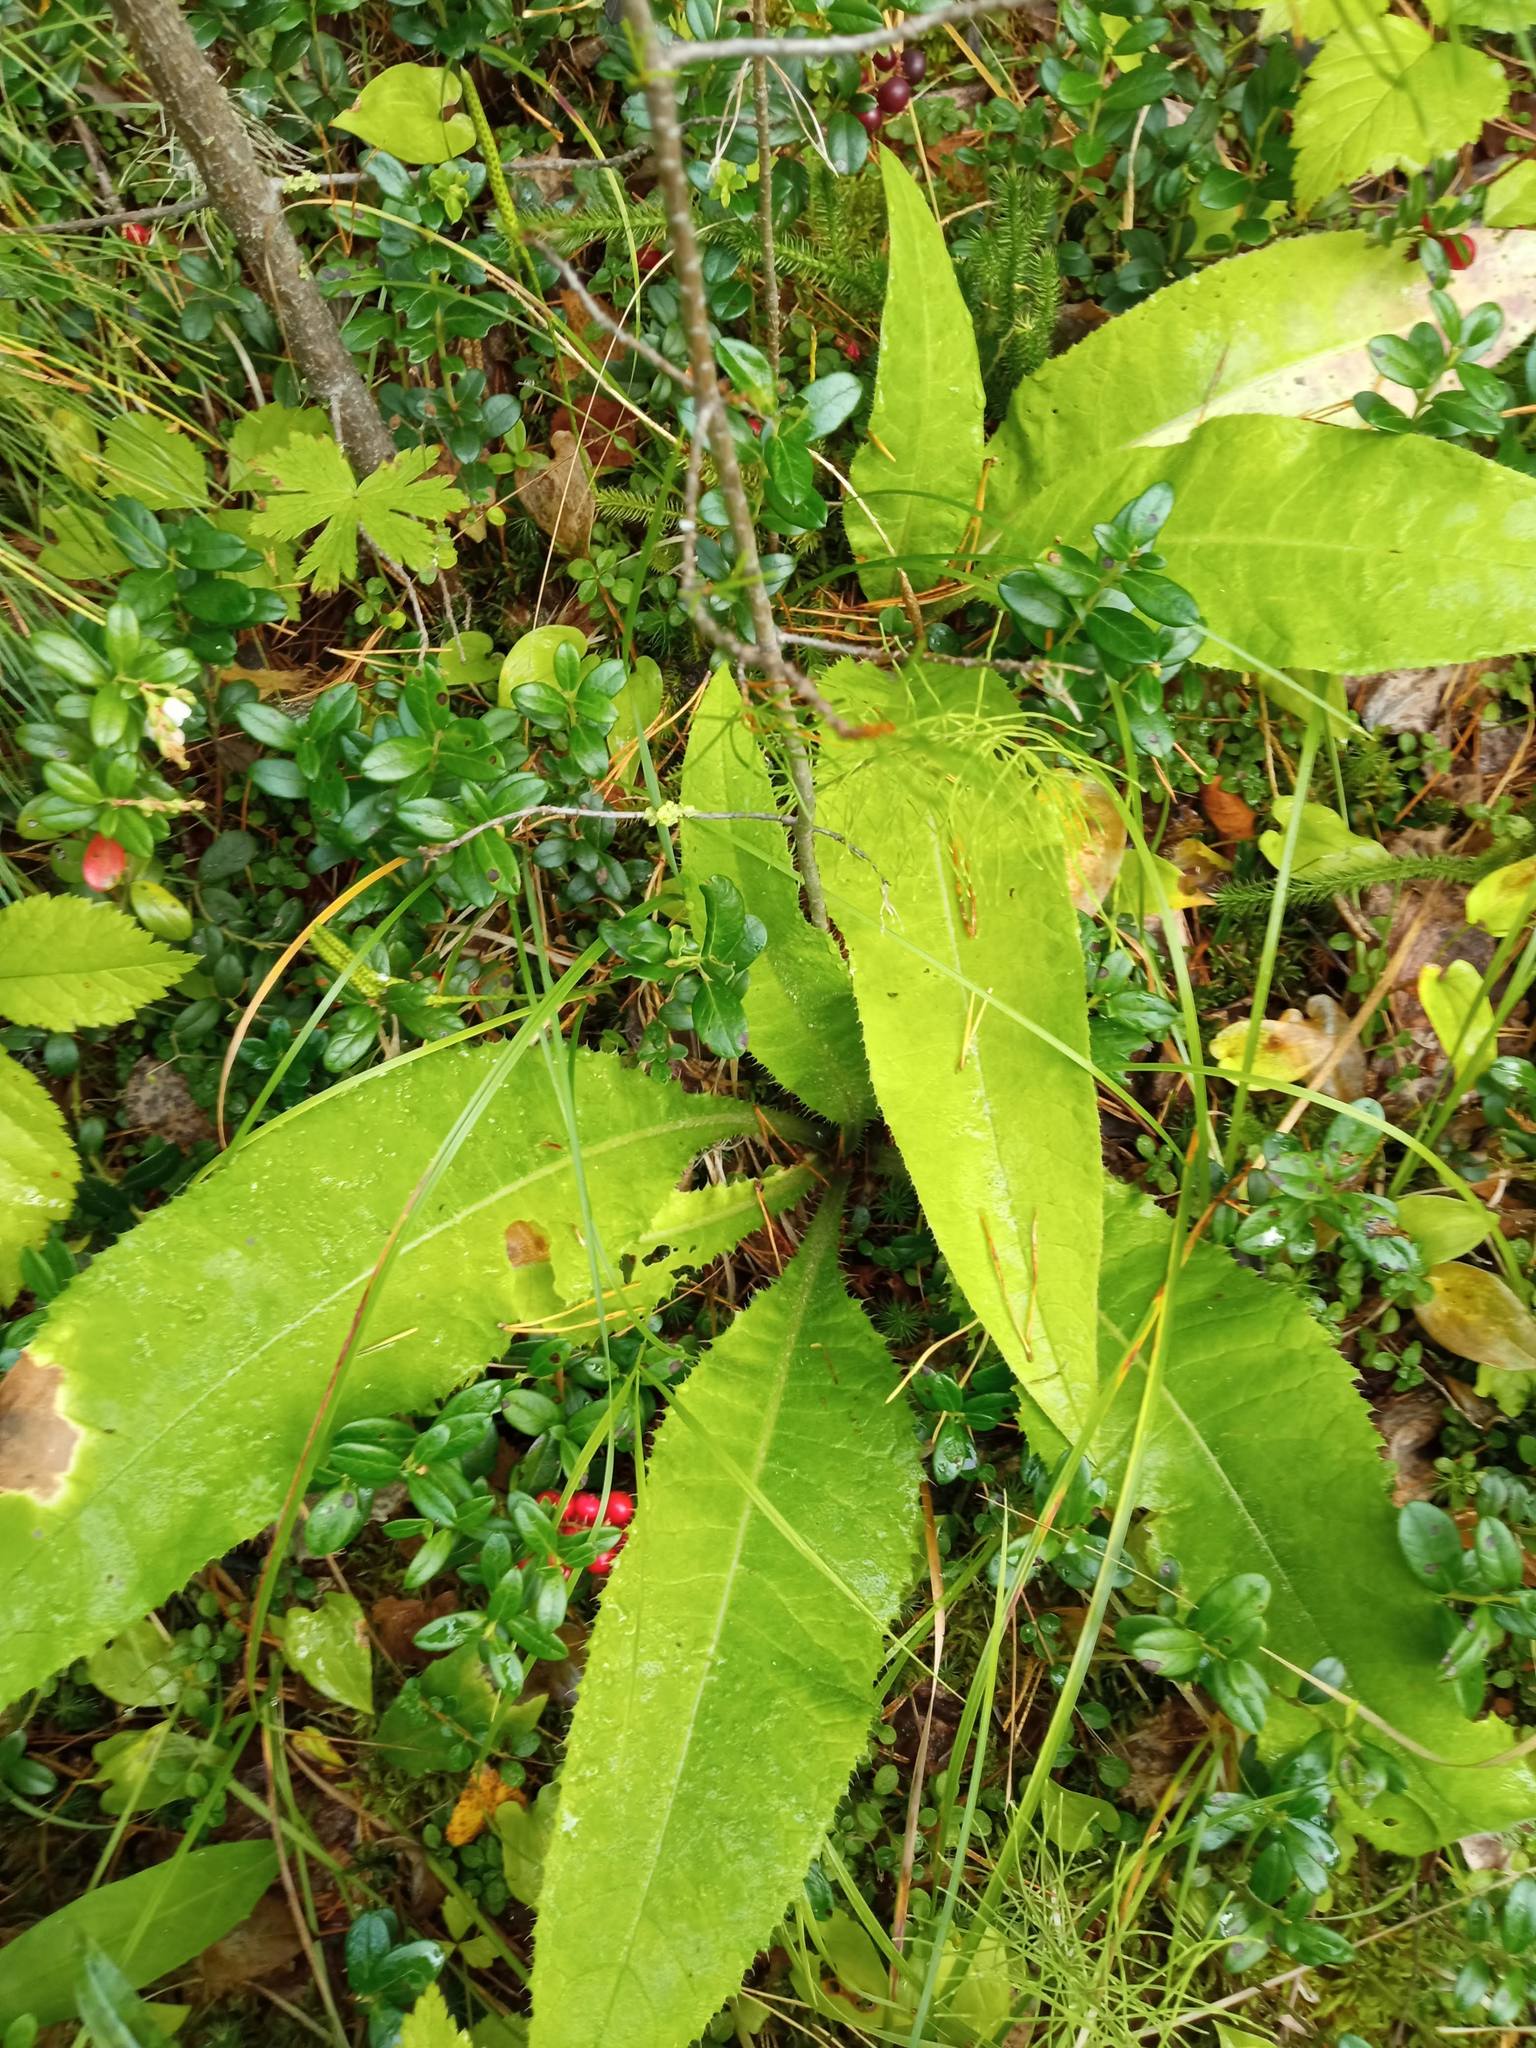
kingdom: Plantae
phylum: Tracheophyta
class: Magnoliopsida
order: Asterales
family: Asteraceae
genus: Cirsium
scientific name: Cirsium heterophyllum
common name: Melancholy thistle
